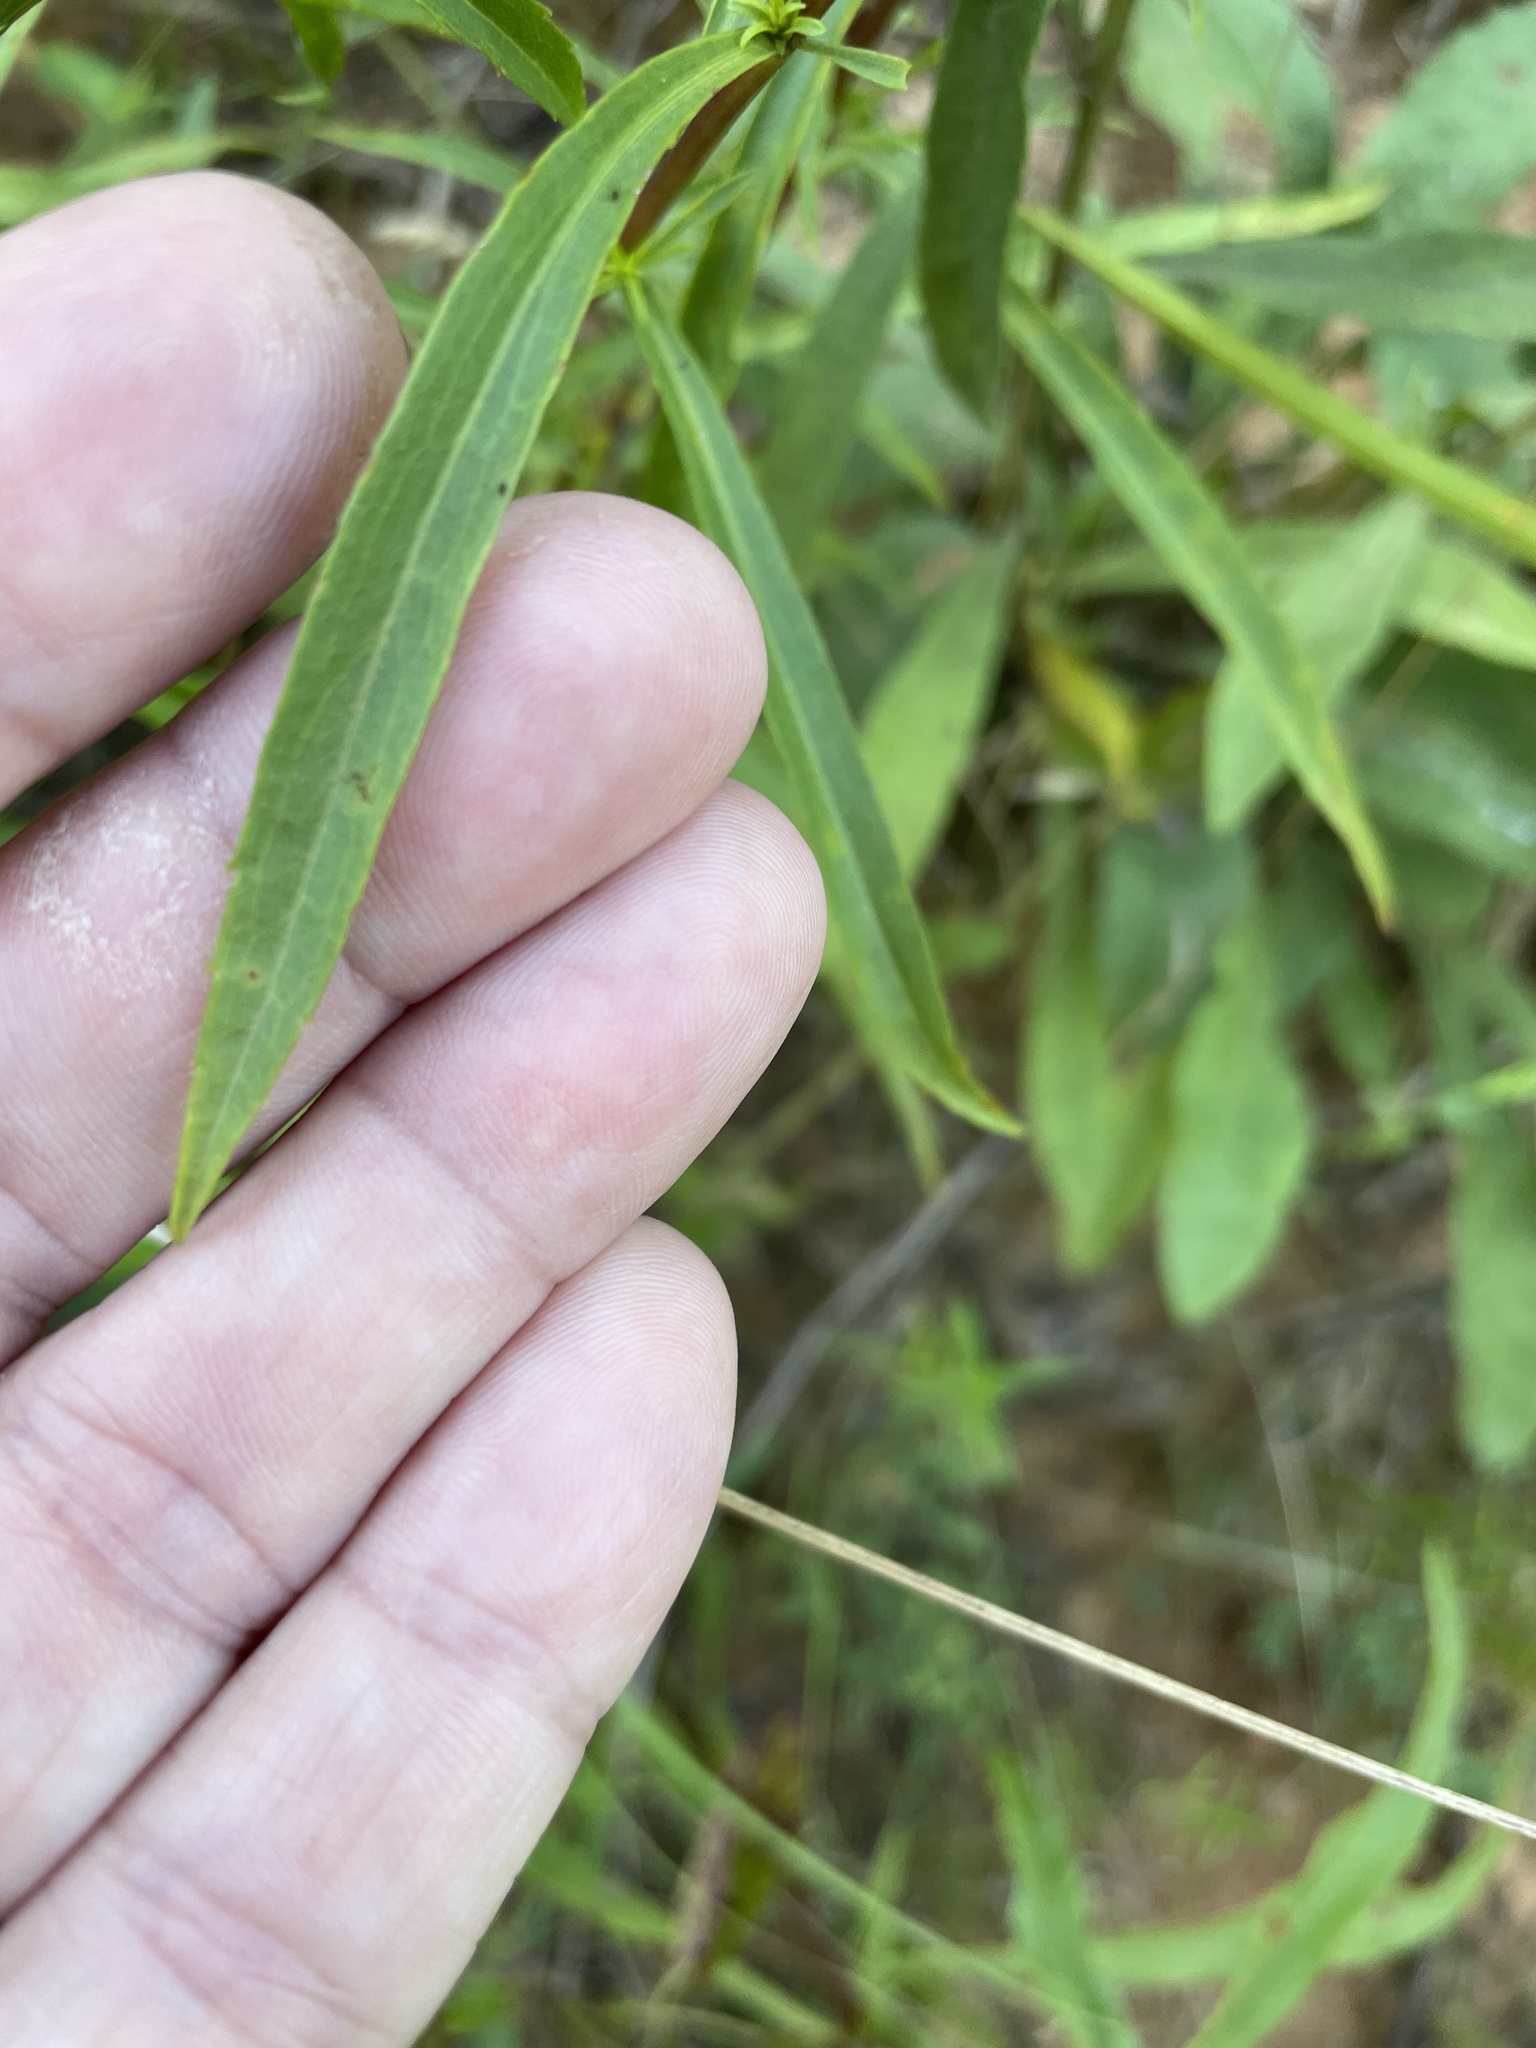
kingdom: Plantae
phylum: Tracheophyta
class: Magnoliopsida
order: Asterales
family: Asteraceae
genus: Solidago
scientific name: Solidago pinetorum
